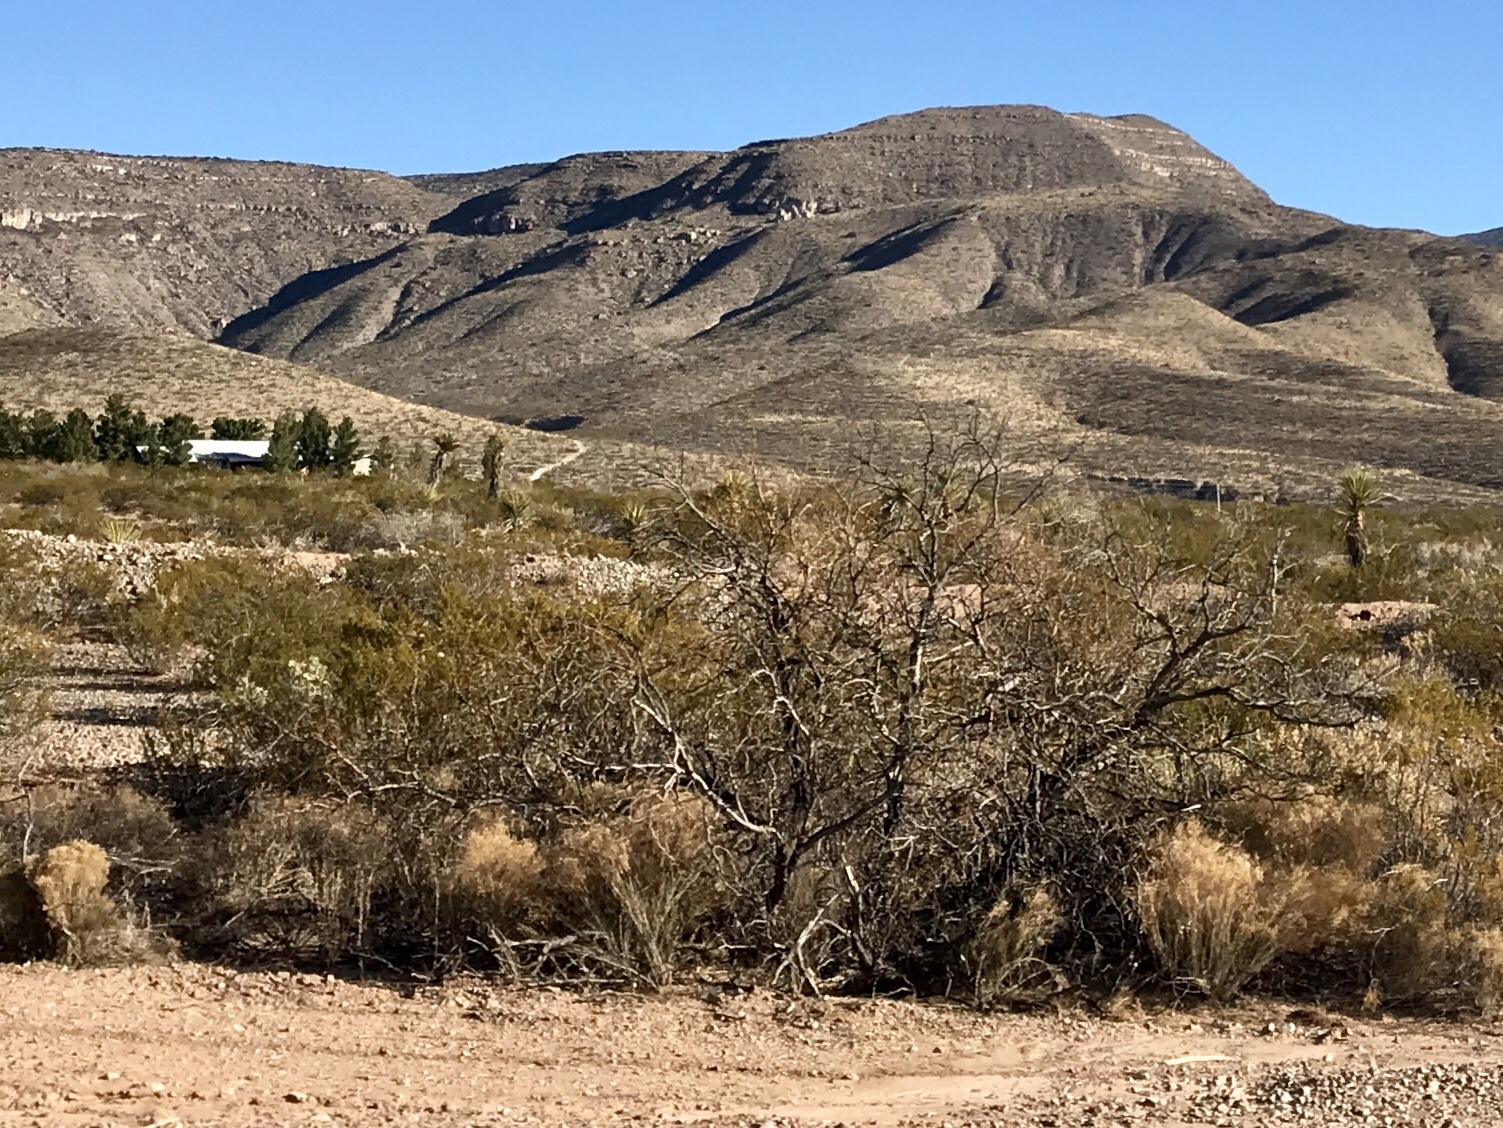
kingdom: Plantae
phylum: Tracheophyta
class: Magnoliopsida
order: Zygophyllales
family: Zygophyllaceae
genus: Larrea
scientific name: Larrea tridentata
